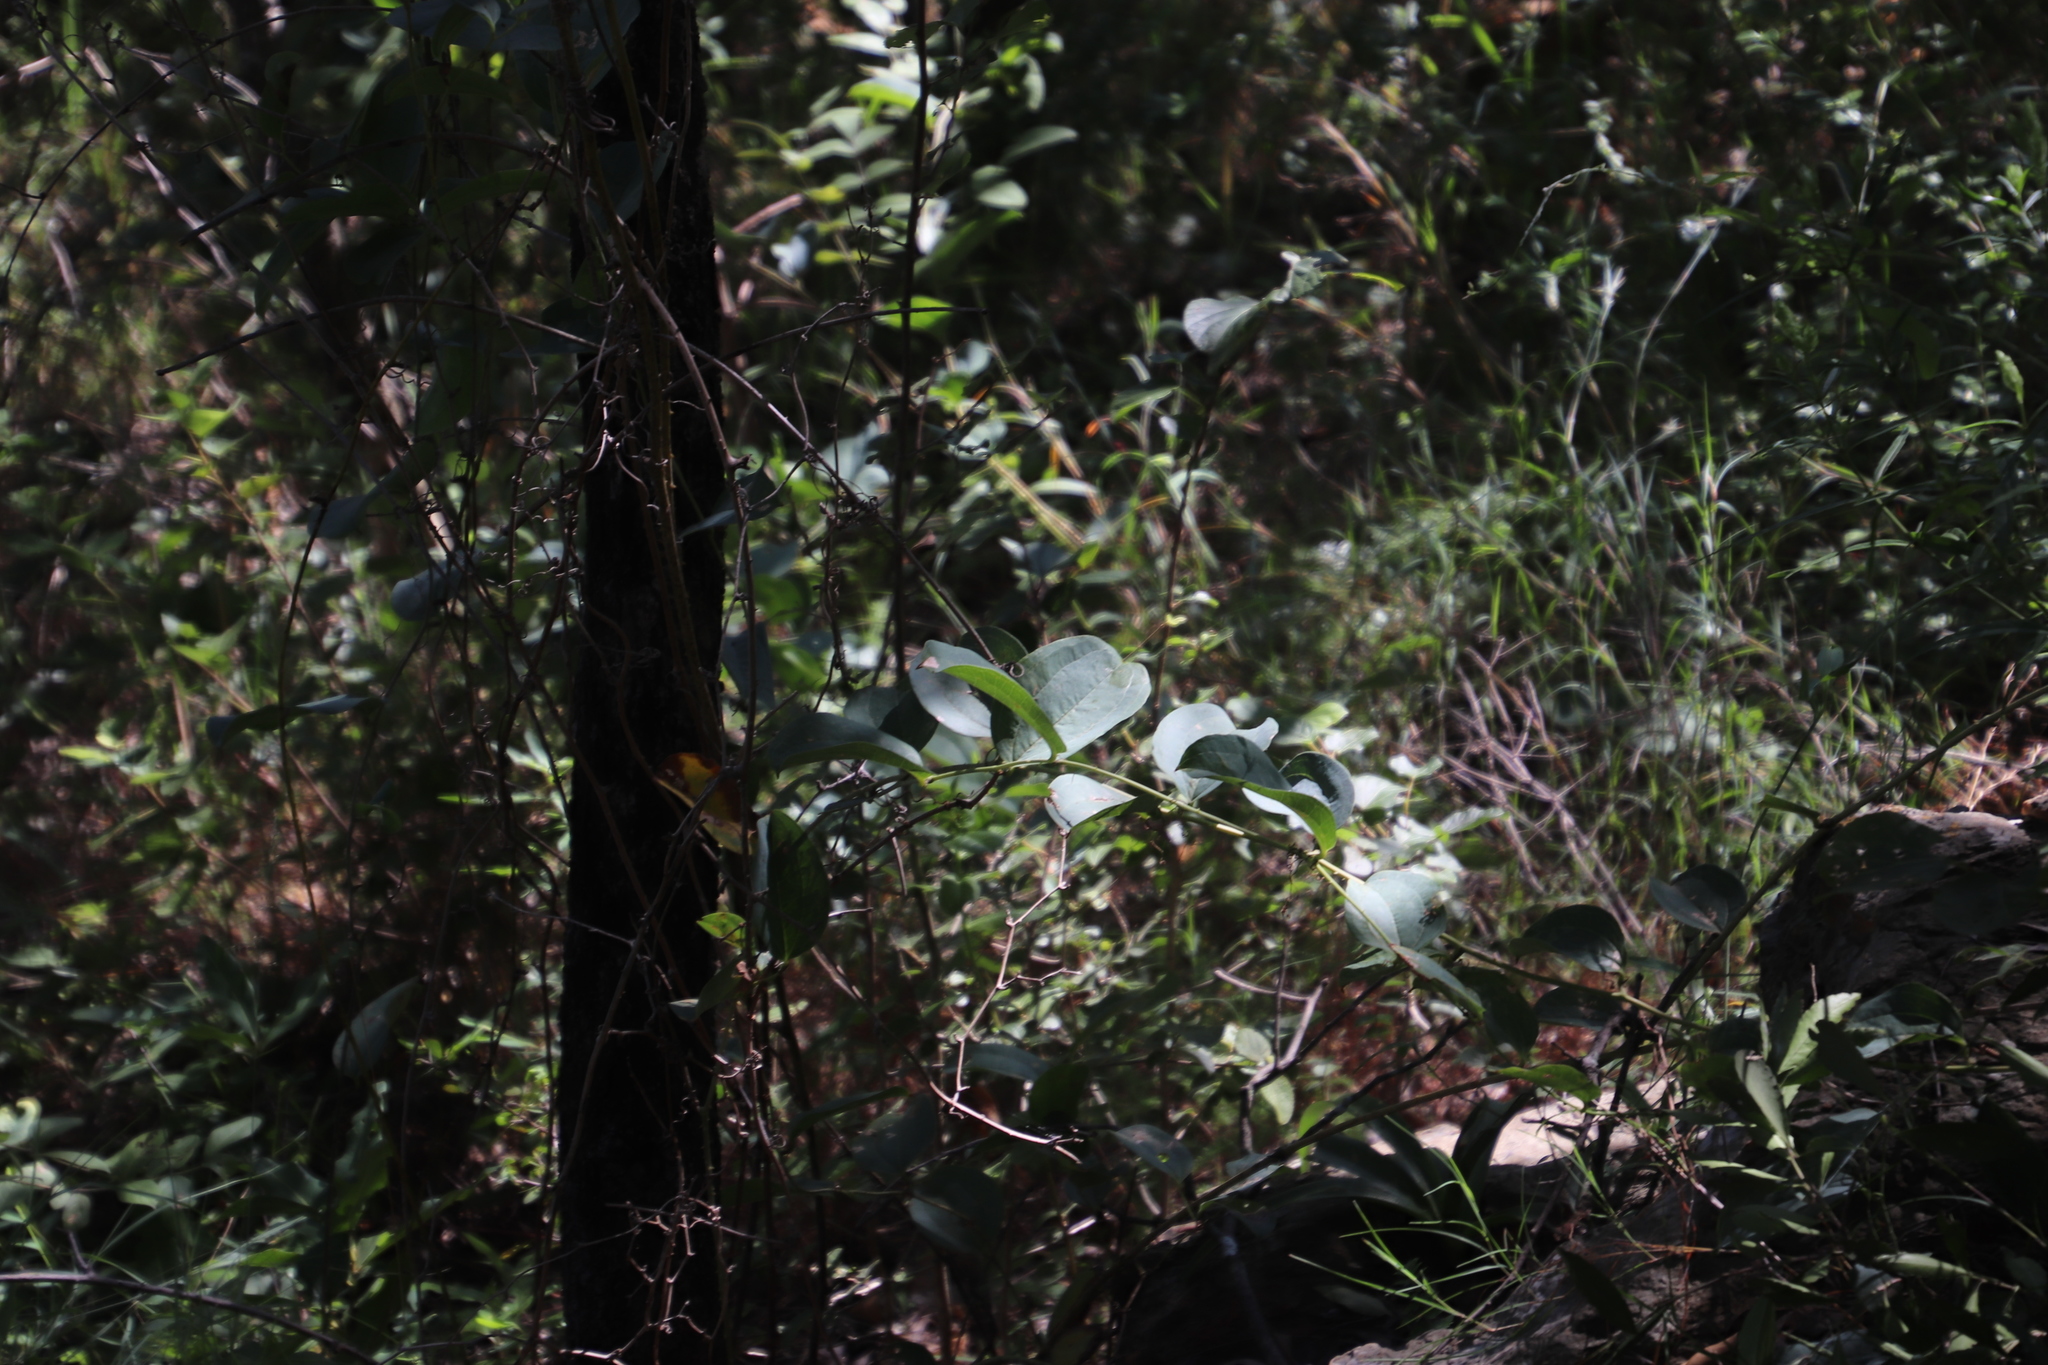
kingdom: Plantae
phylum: Tracheophyta
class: Liliopsida
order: Liliales
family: Smilacaceae
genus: Smilax
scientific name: Smilax anceps
